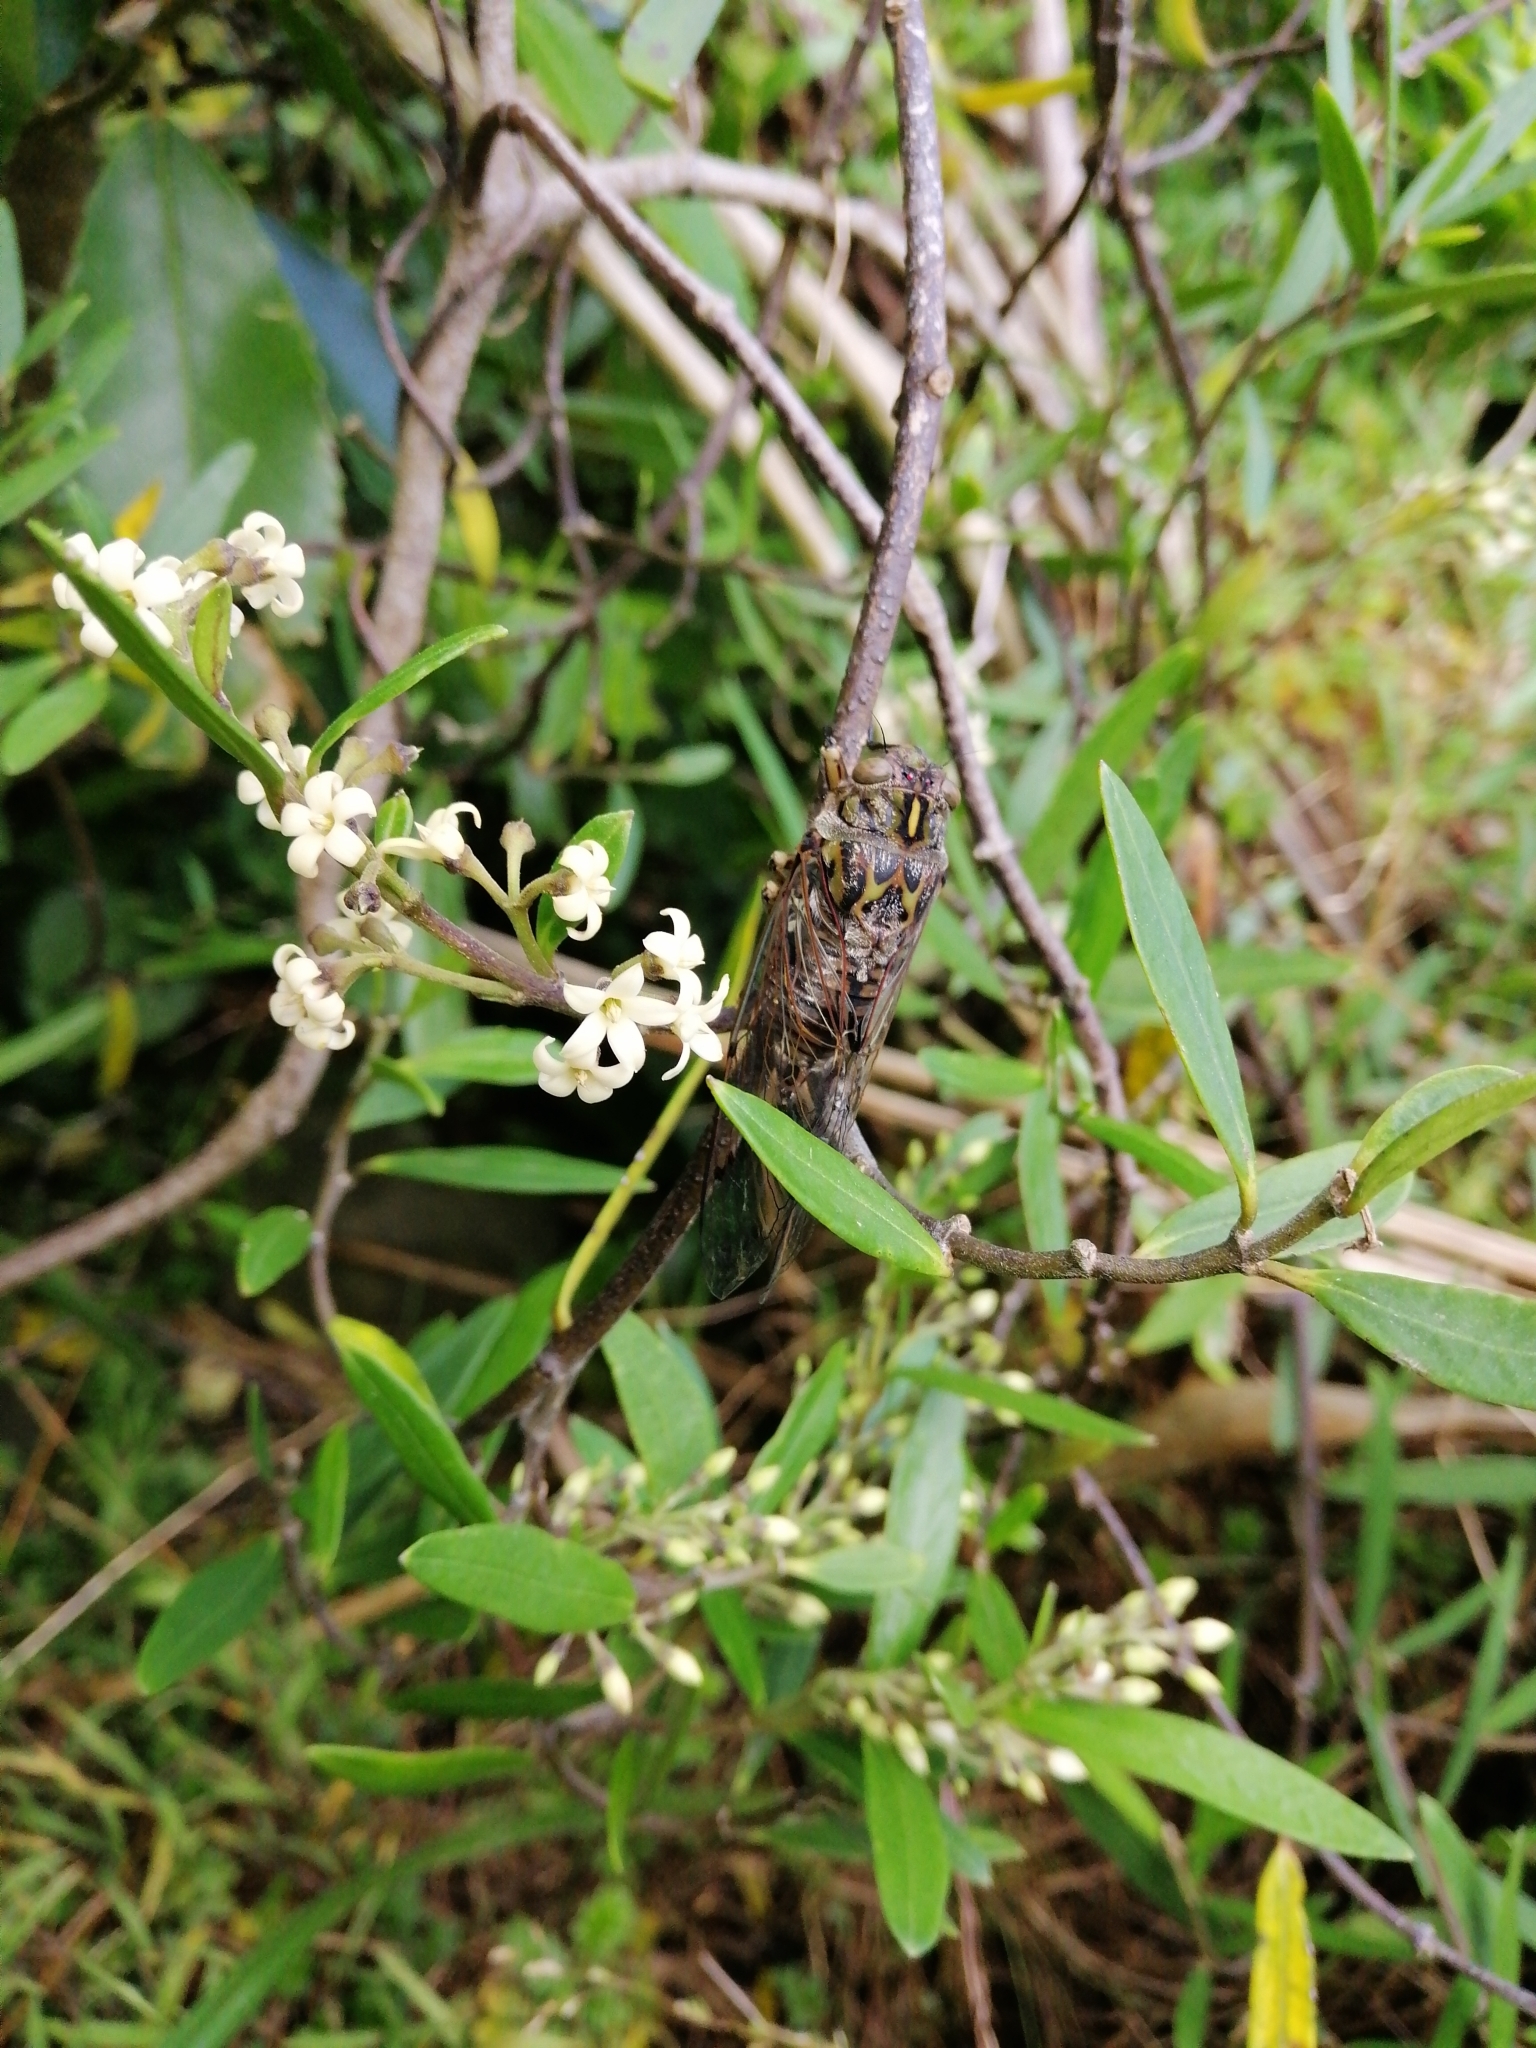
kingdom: Plantae
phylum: Tracheophyta
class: Magnoliopsida
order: Gentianales
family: Apocynaceae
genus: Parsonsia
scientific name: Parsonsia heterophylla
